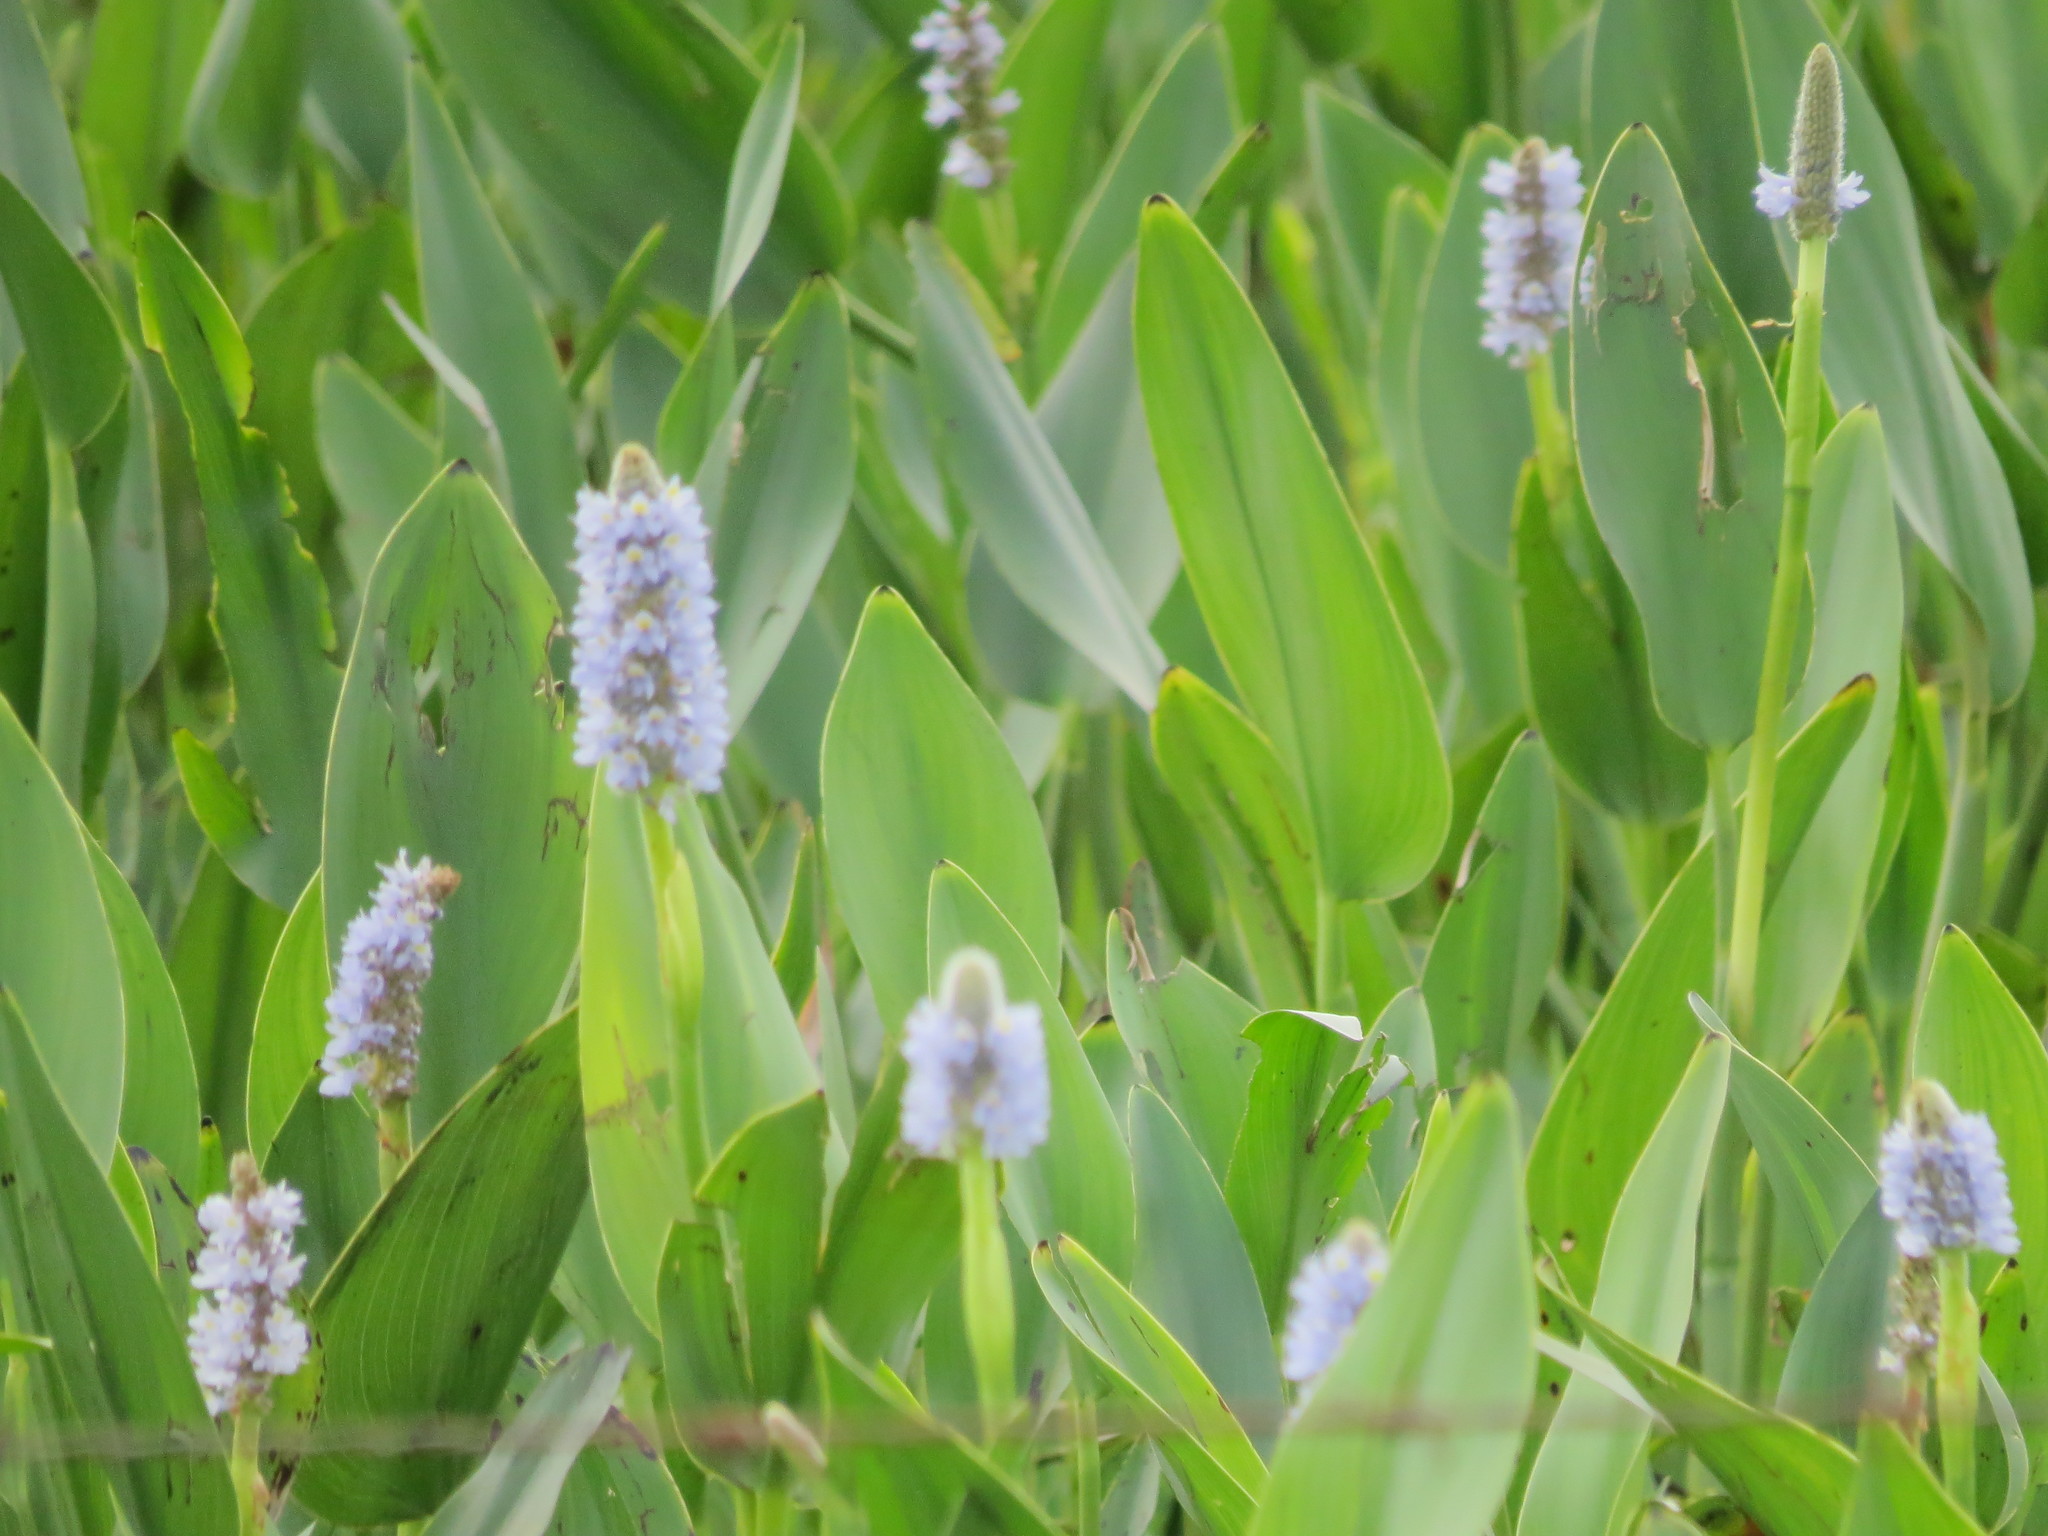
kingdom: Plantae
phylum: Tracheophyta
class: Liliopsida
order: Commelinales
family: Pontederiaceae
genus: Pontederia
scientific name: Pontederia cordata
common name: Pickerelweed
